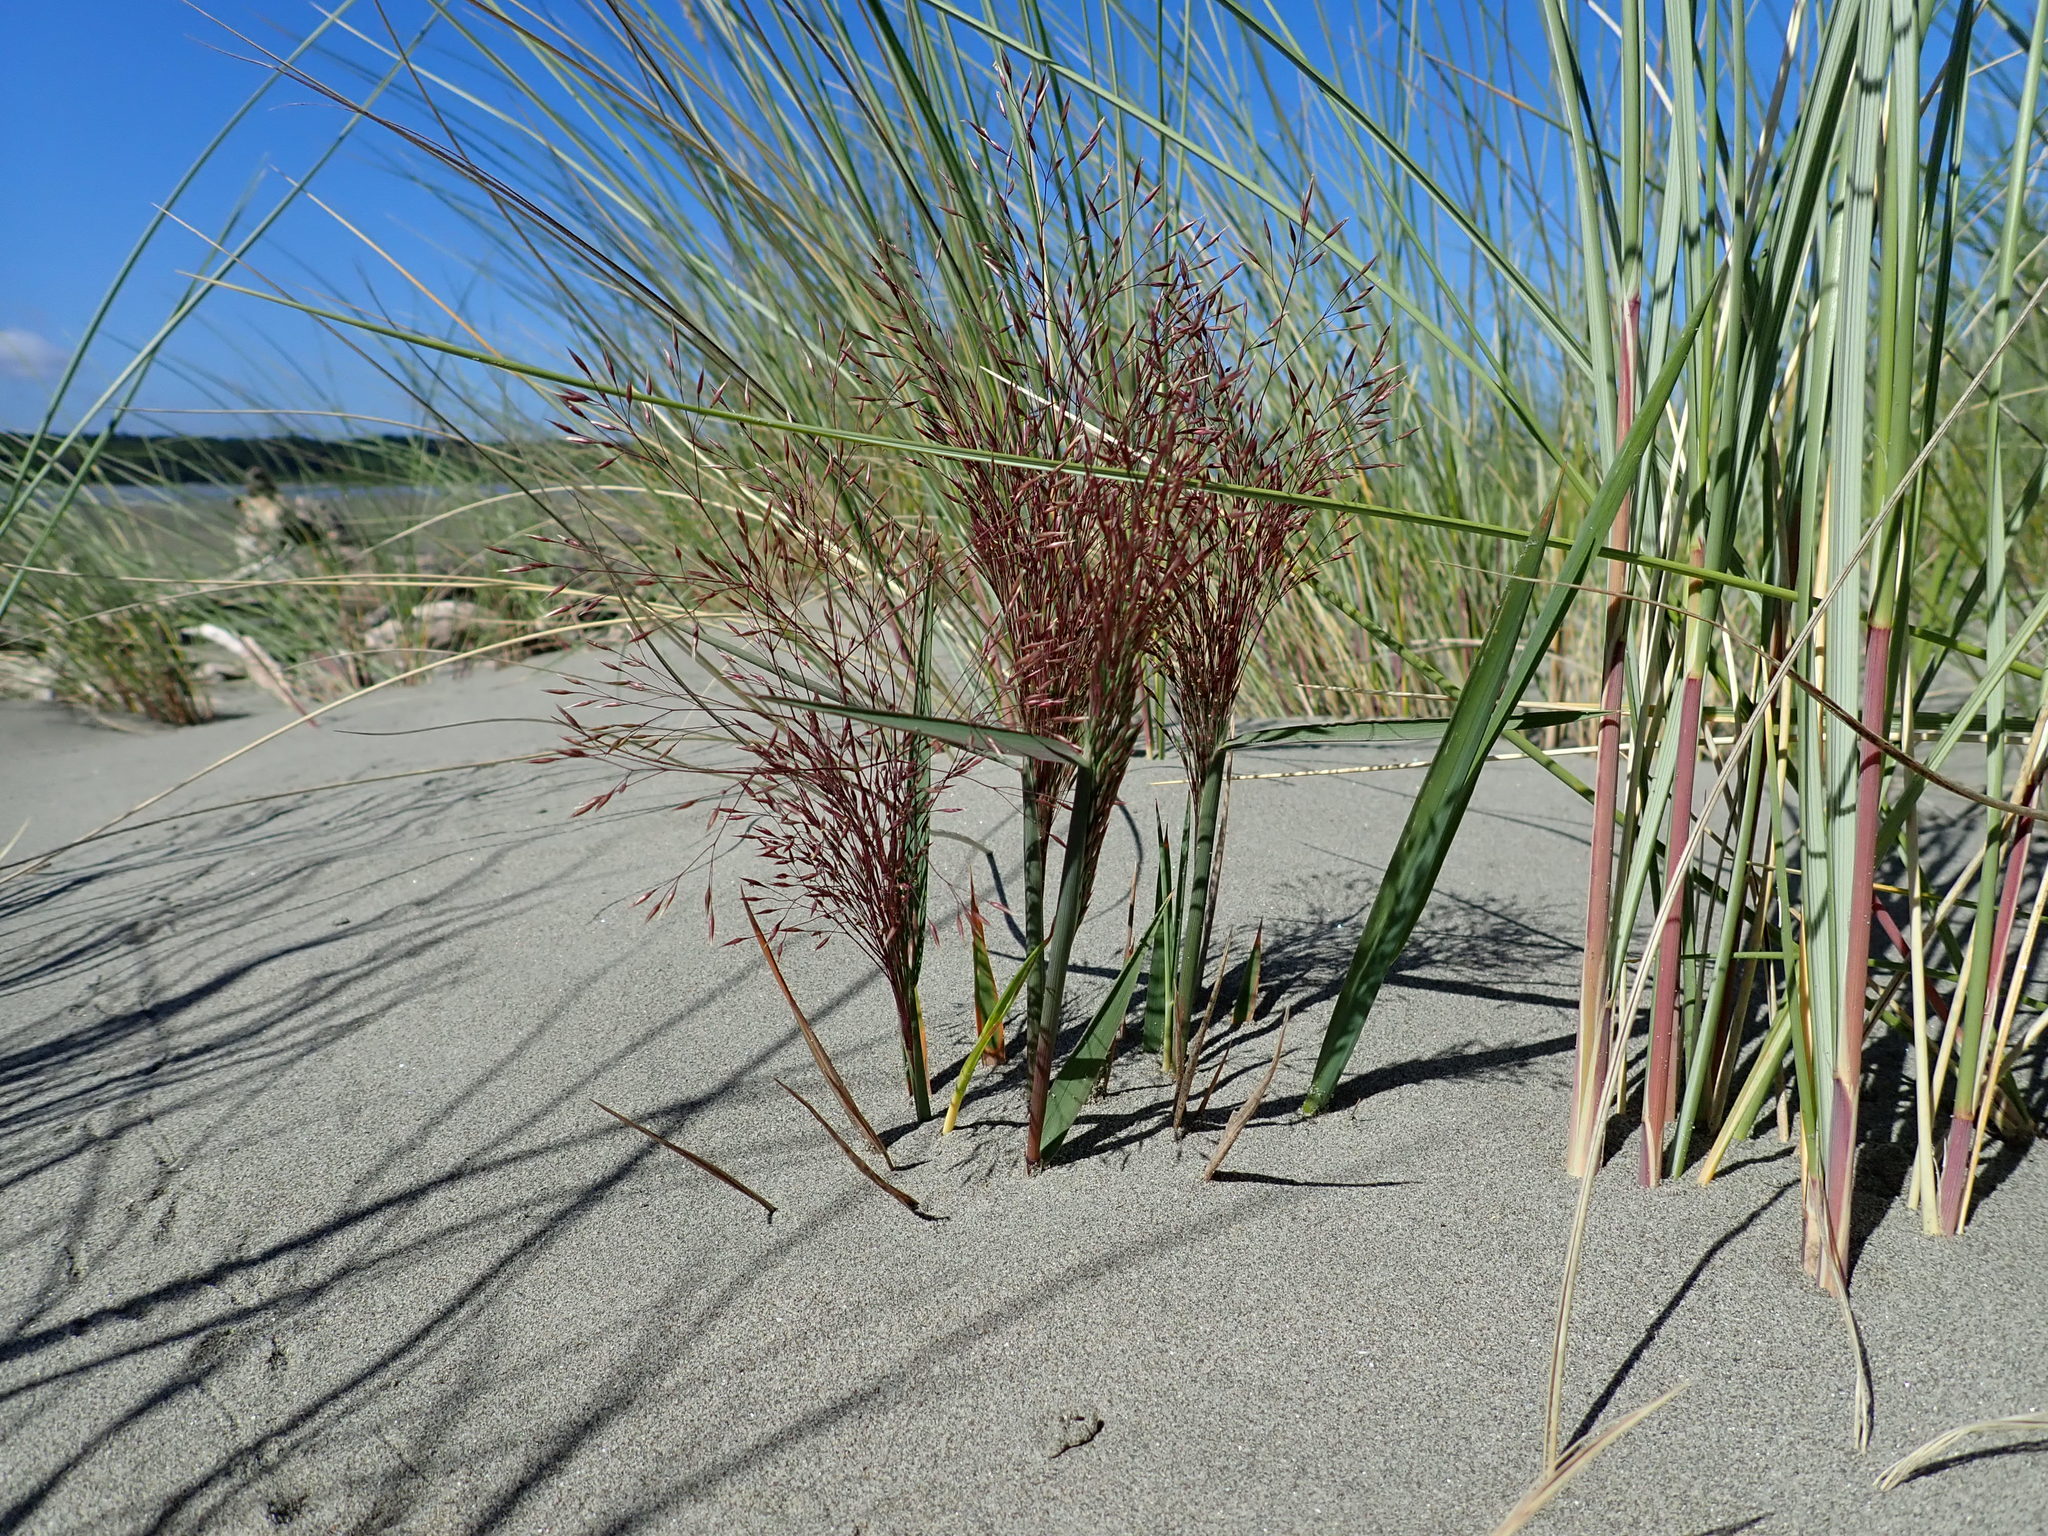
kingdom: Plantae
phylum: Tracheophyta
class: Liliopsida
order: Poales
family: Poaceae
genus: Lachnagrostis
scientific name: Lachnagrostis billardierei
